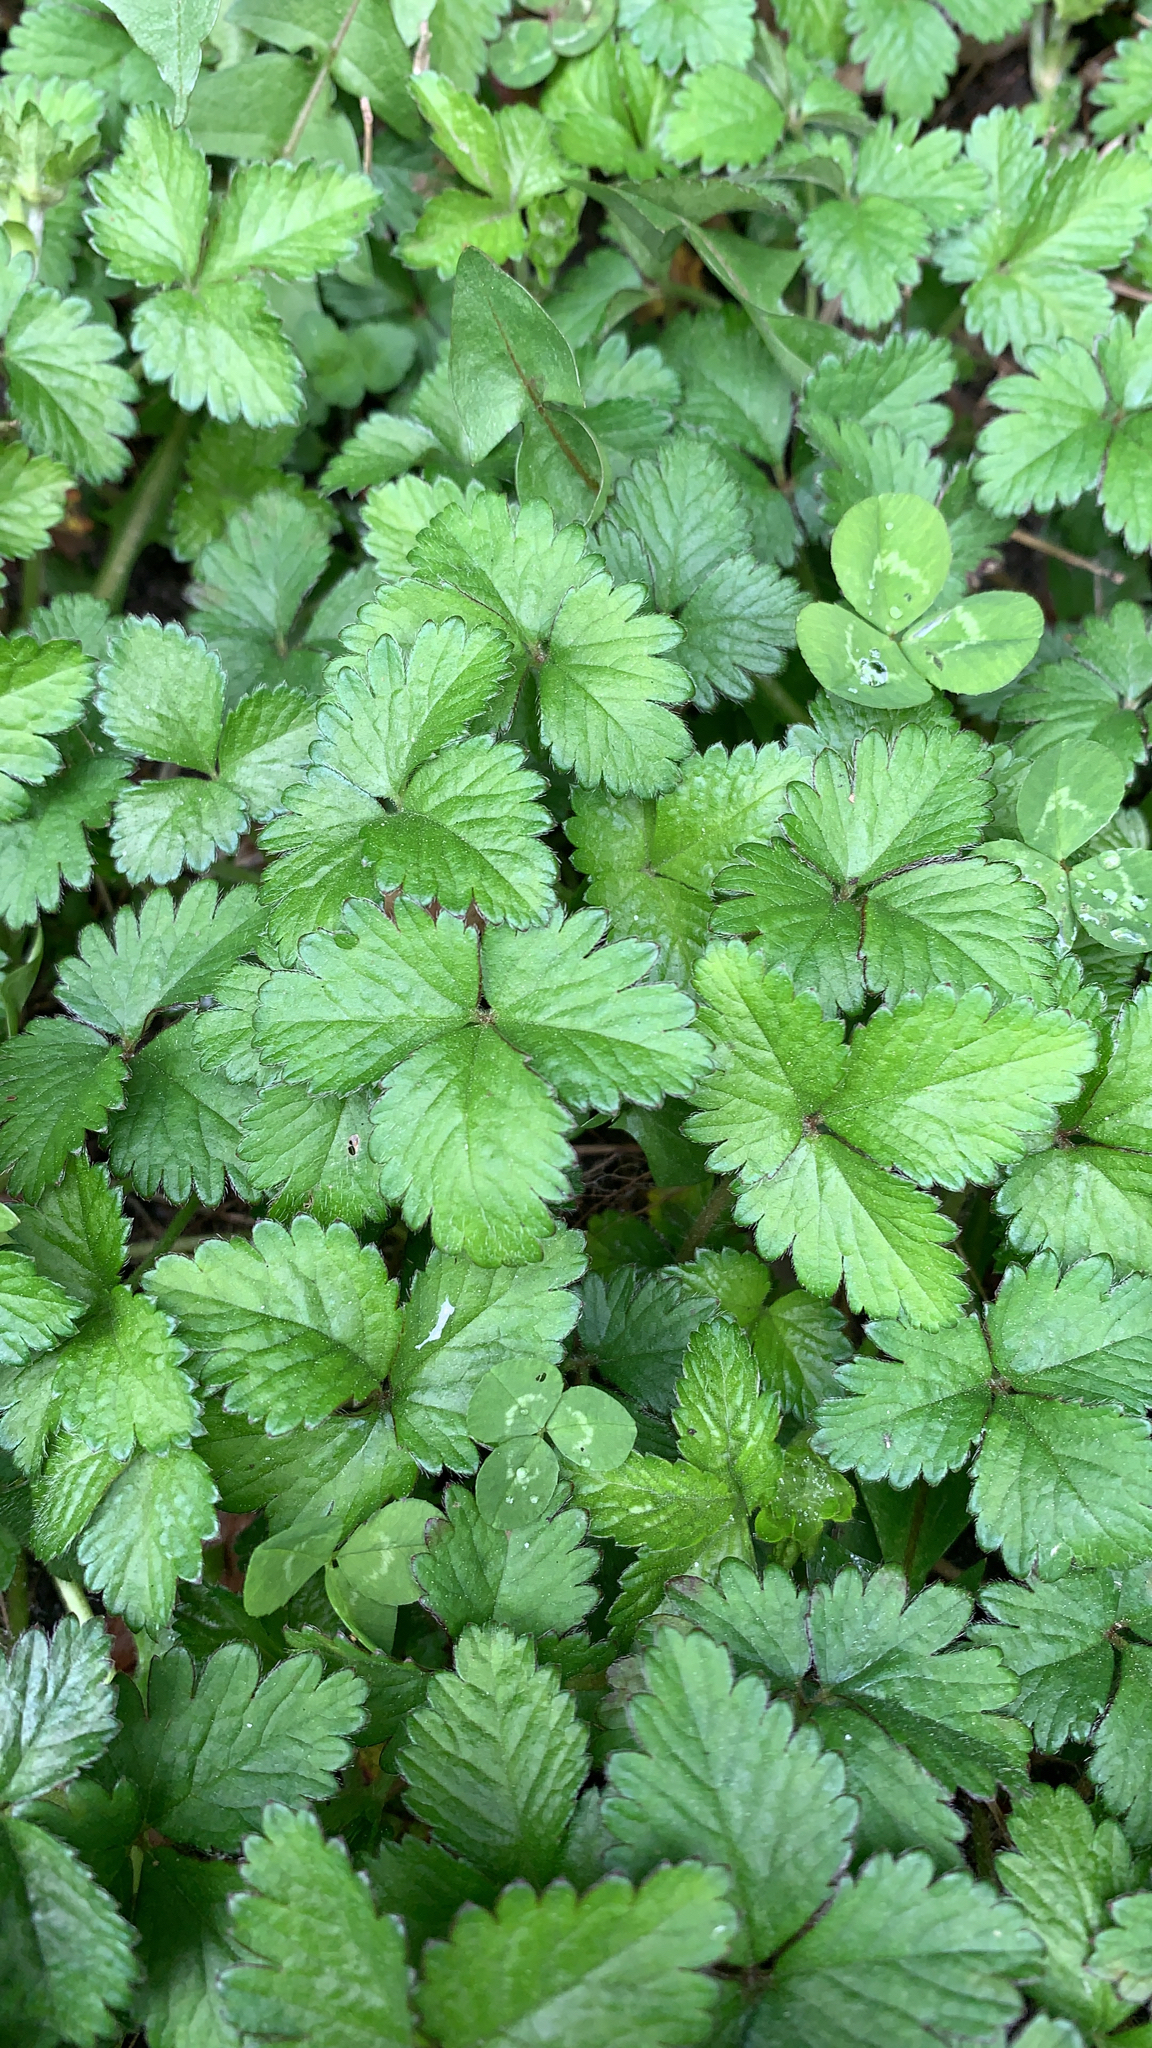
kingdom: Plantae
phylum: Tracheophyta
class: Magnoliopsida
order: Rosales
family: Rosaceae
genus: Potentilla
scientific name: Potentilla indica
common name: Yellow-flowered strawberry
